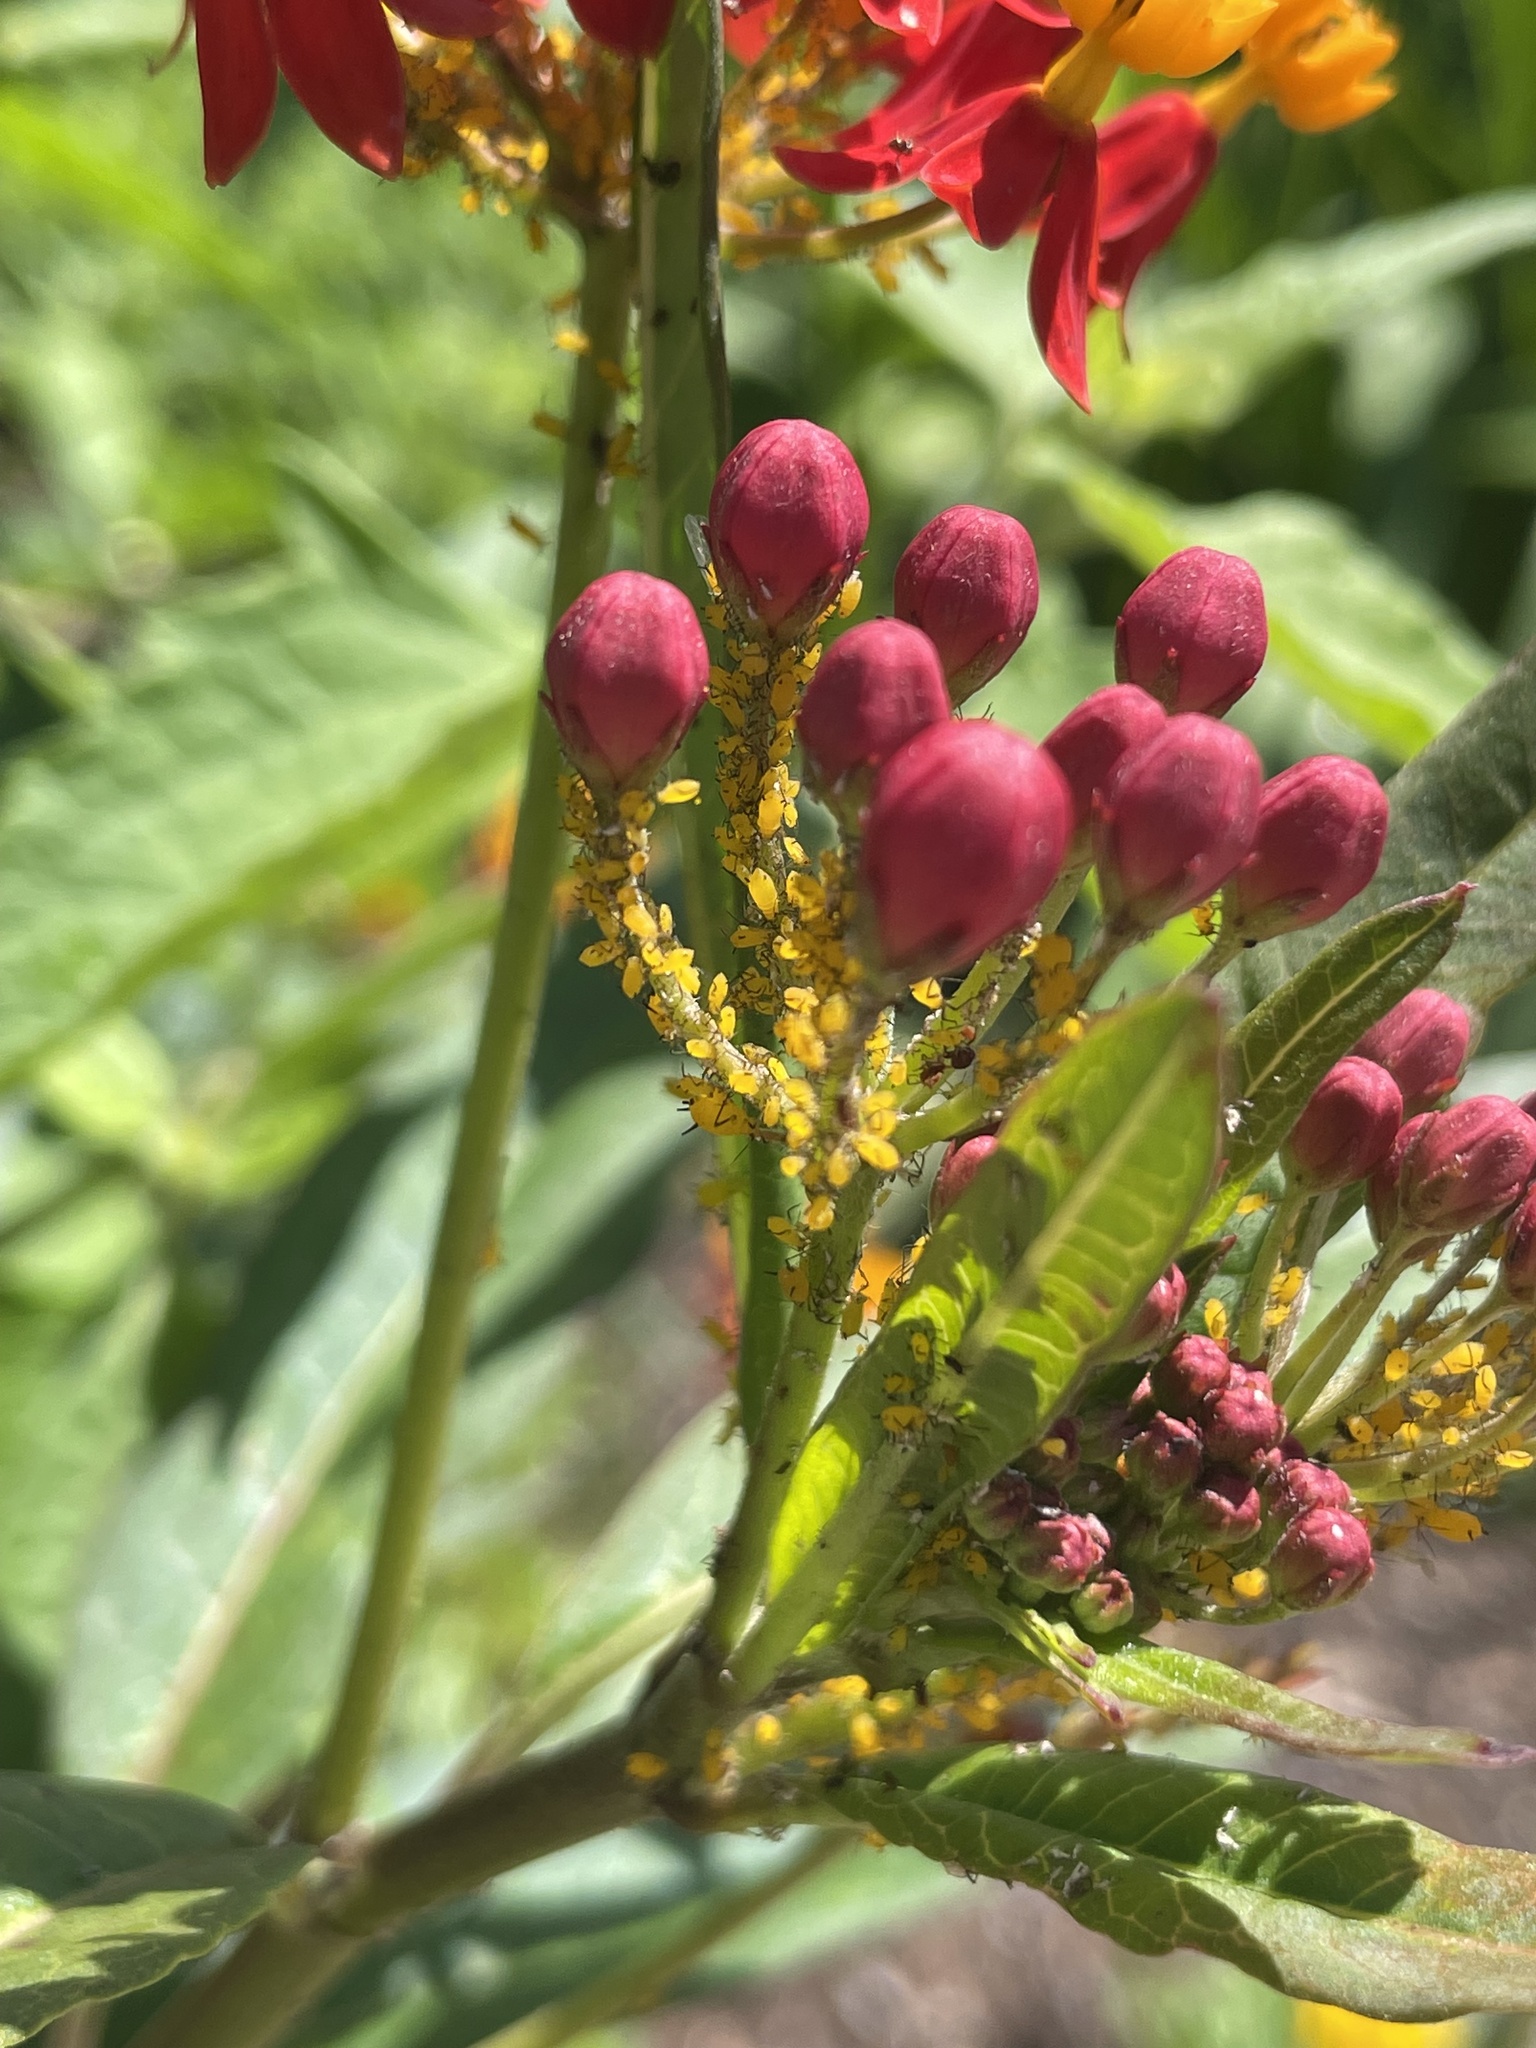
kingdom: Animalia
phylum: Arthropoda
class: Insecta
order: Hemiptera
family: Aphididae
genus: Aphis
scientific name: Aphis nerii
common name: Oleander aphid
